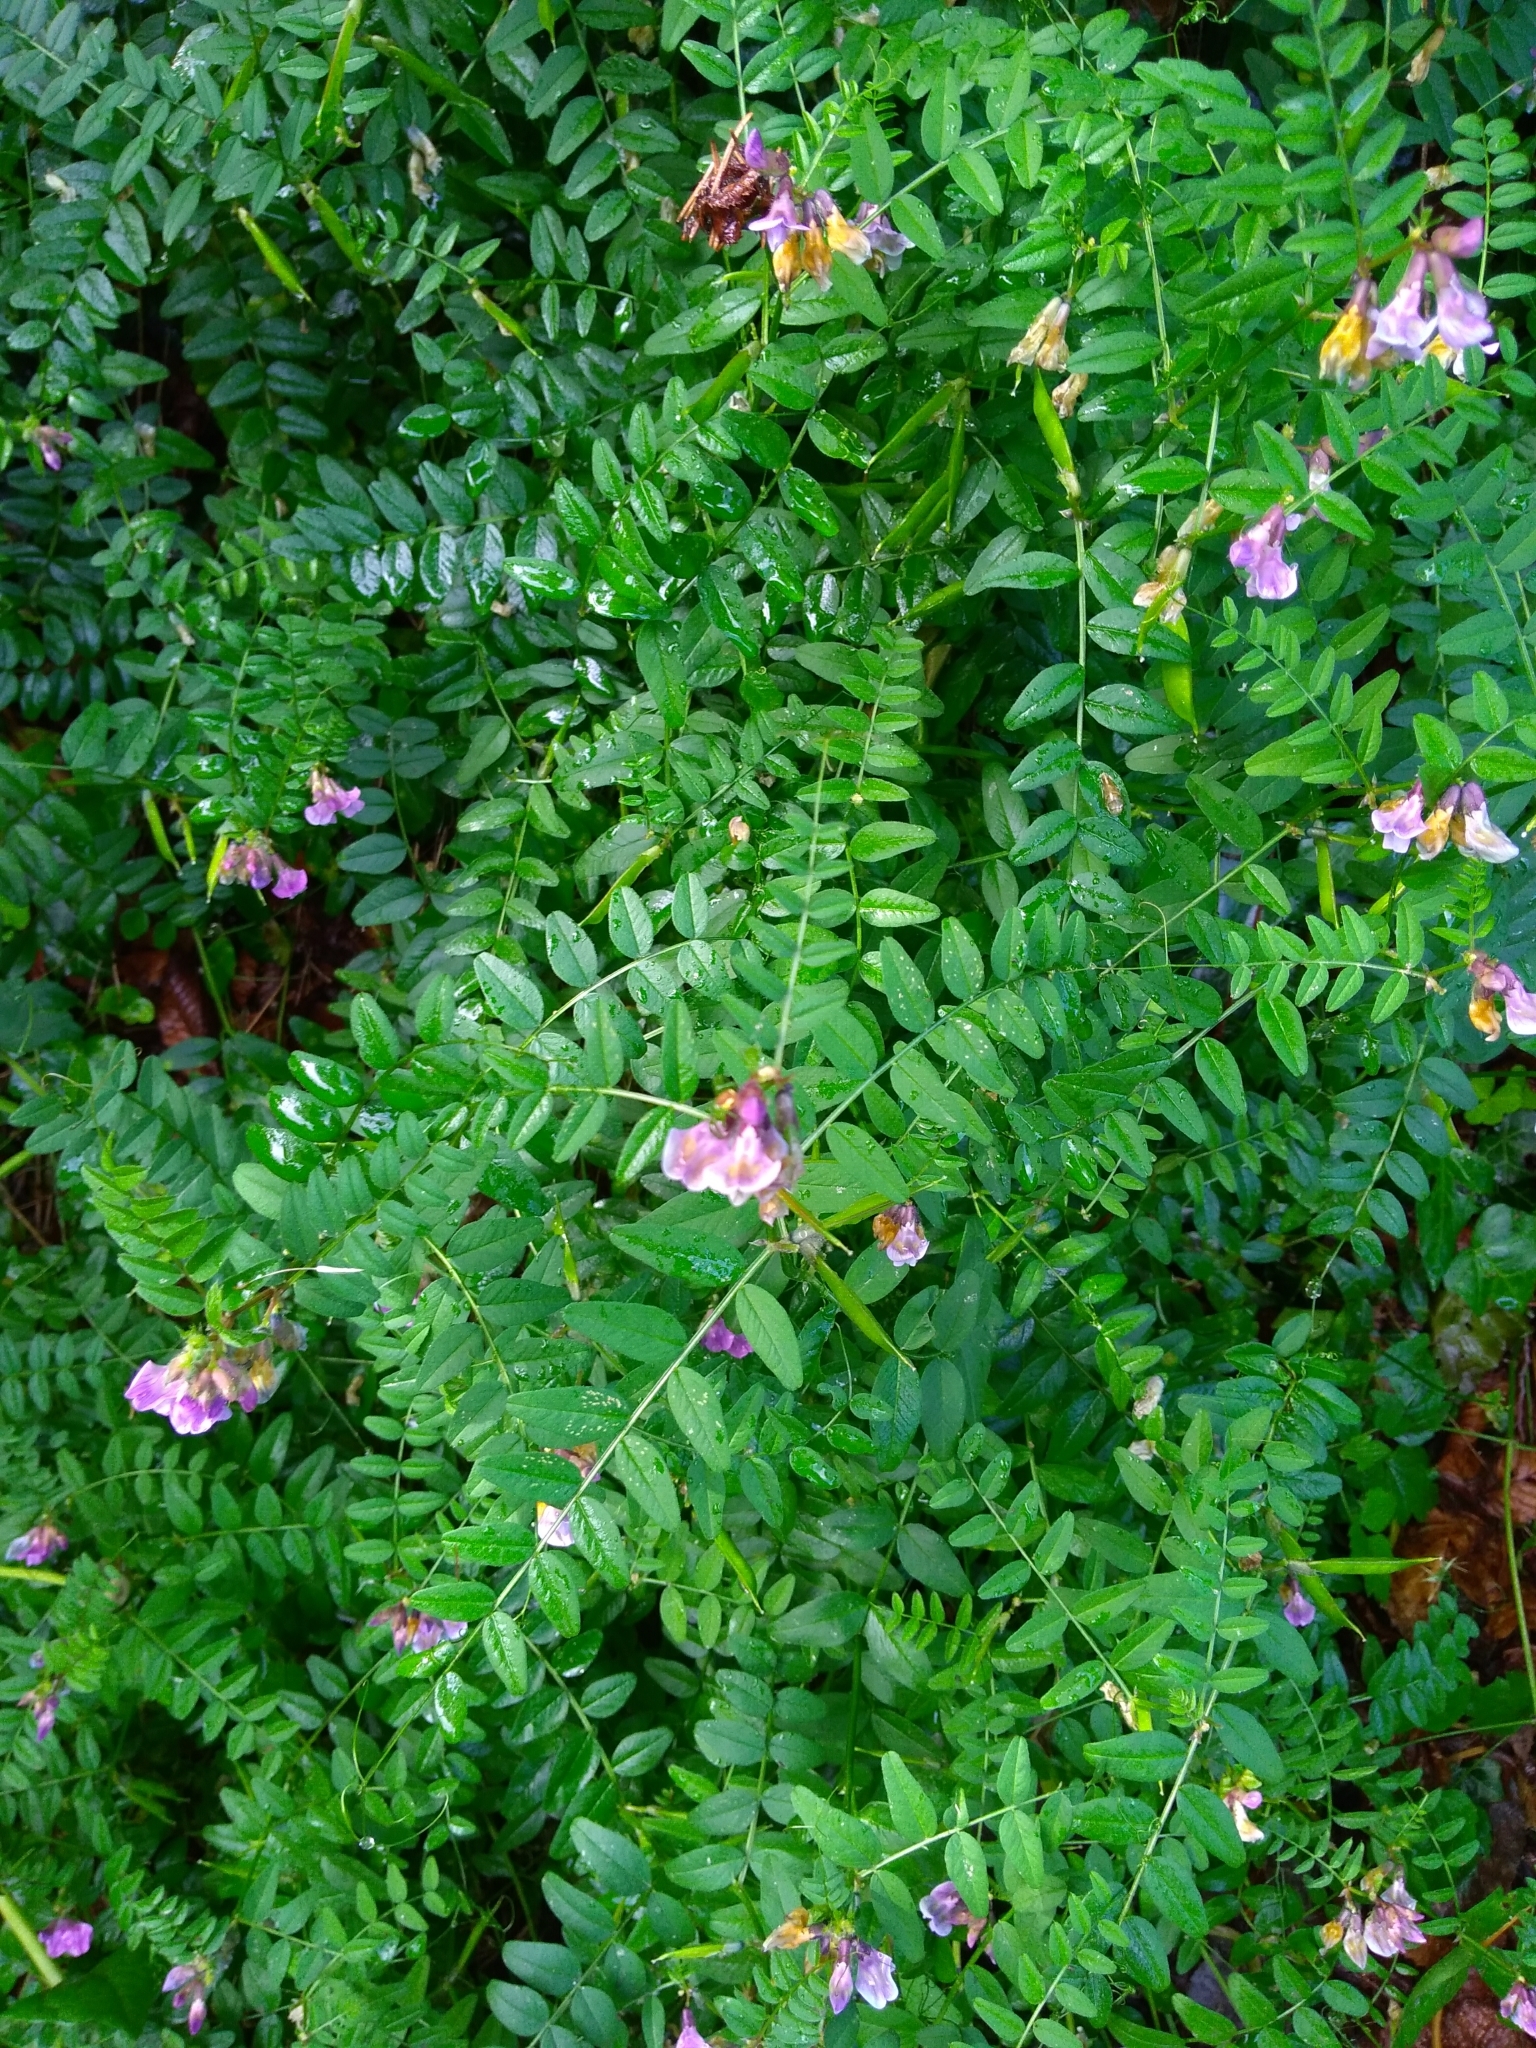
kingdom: Plantae
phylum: Tracheophyta
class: Magnoliopsida
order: Fabales
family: Fabaceae
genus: Vicia
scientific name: Vicia sepium
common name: Bush vetch
